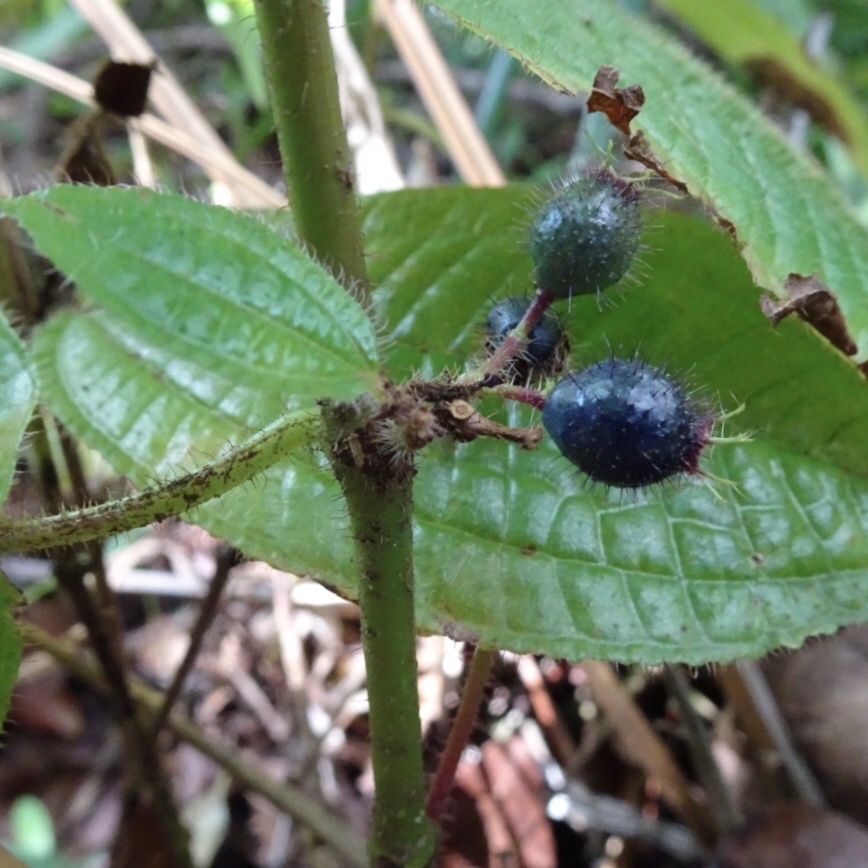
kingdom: Plantae
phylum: Tracheophyta
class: Magnoliopsida
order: Myrtales
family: Melastomataceae
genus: Miconia
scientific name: Miconia crenata
